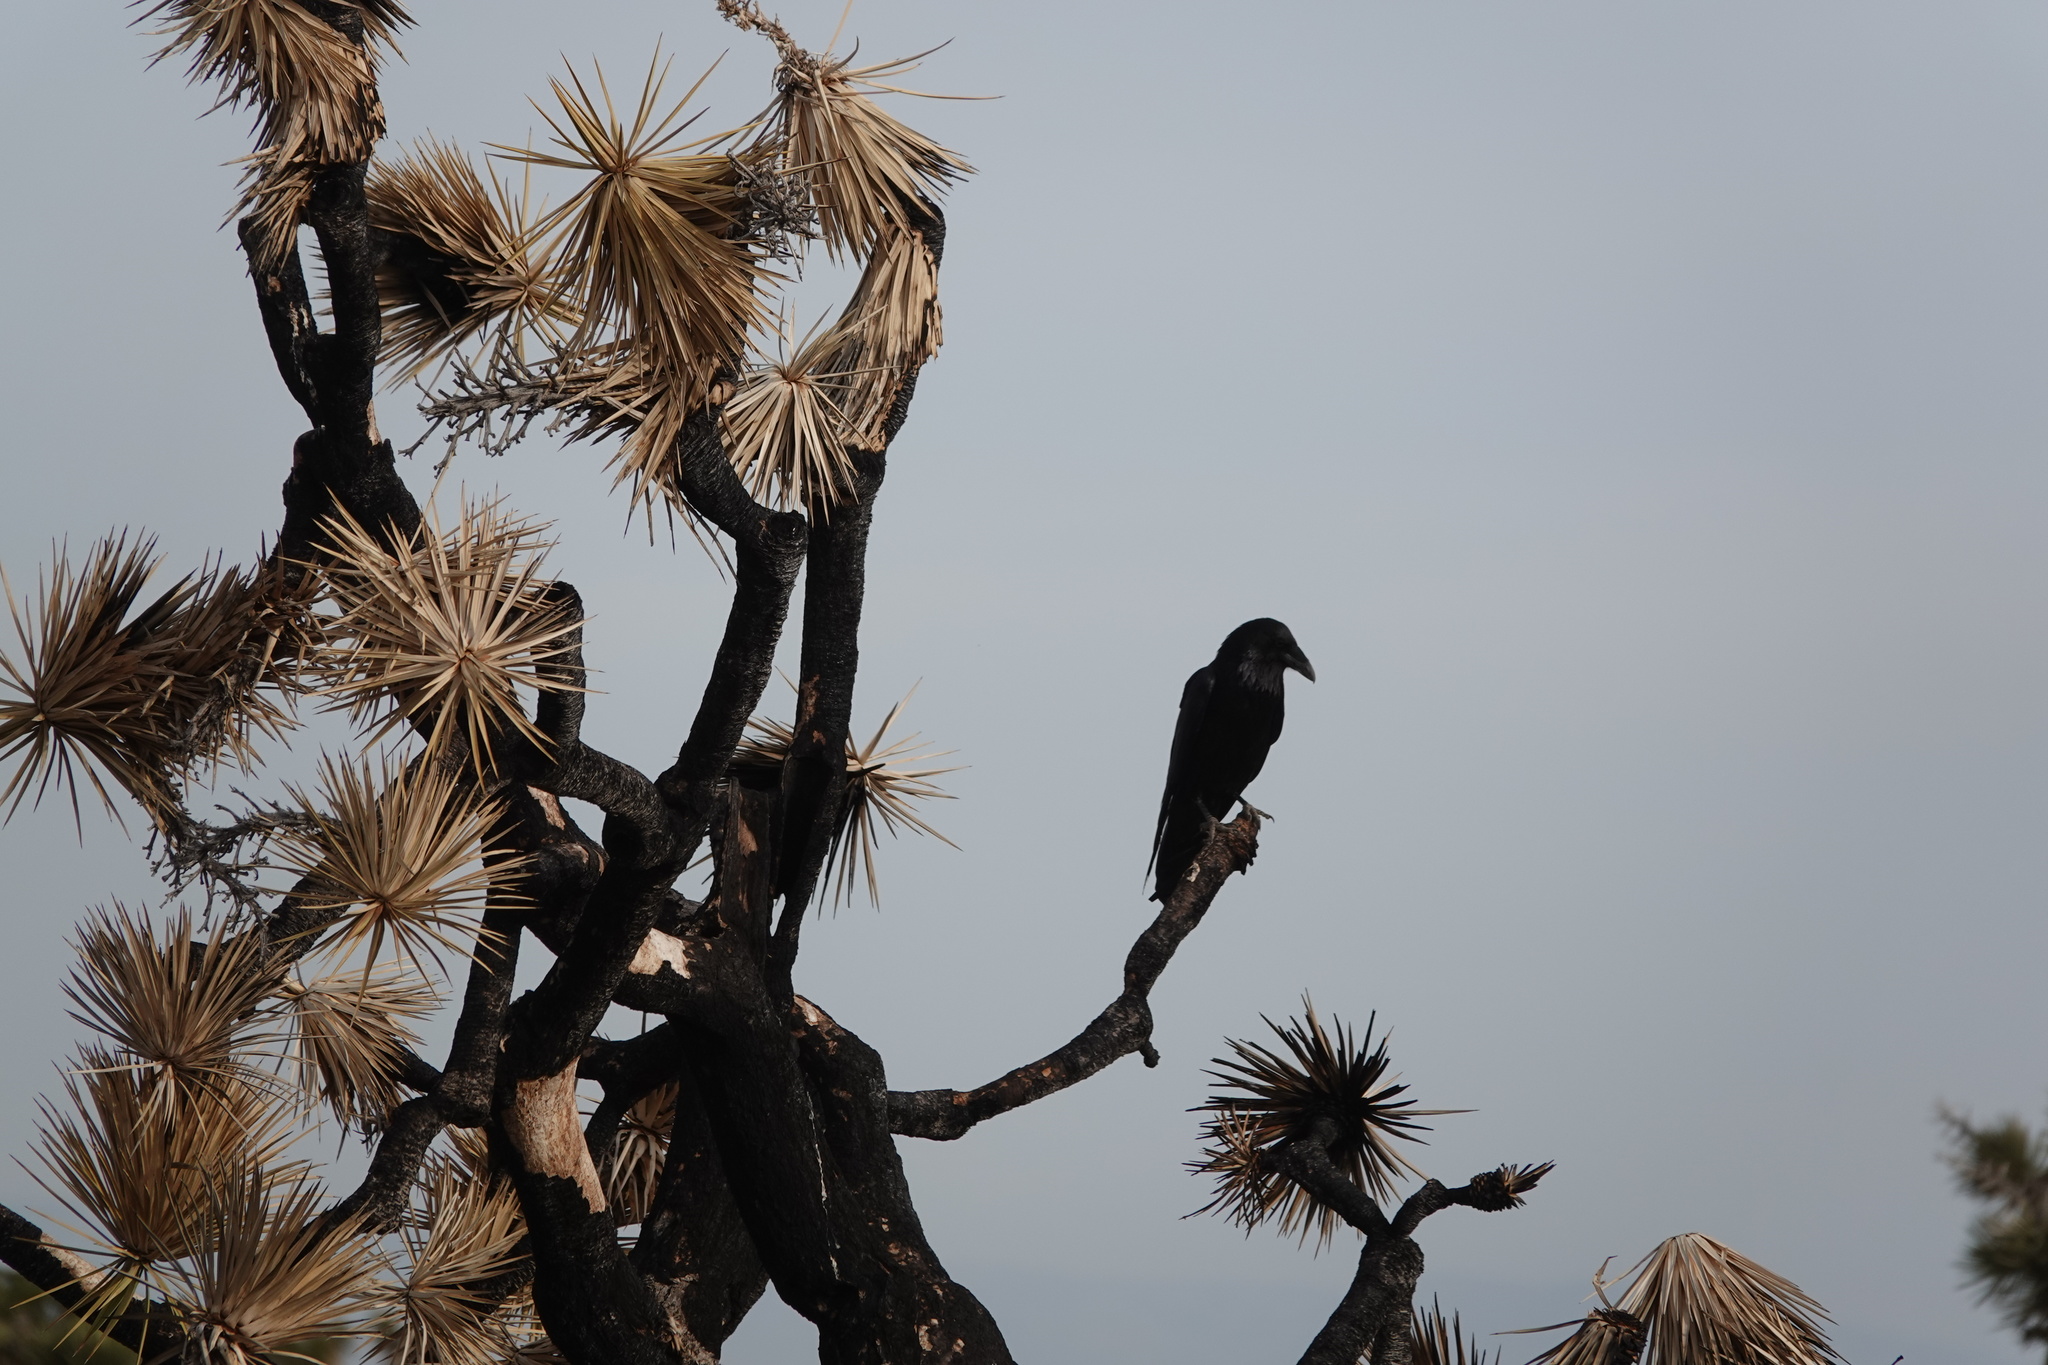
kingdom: Animalia
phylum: Chordata
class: Aves
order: Passeriformes
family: Corvidae
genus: Corvus
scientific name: Corvus corax
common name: Common raven
